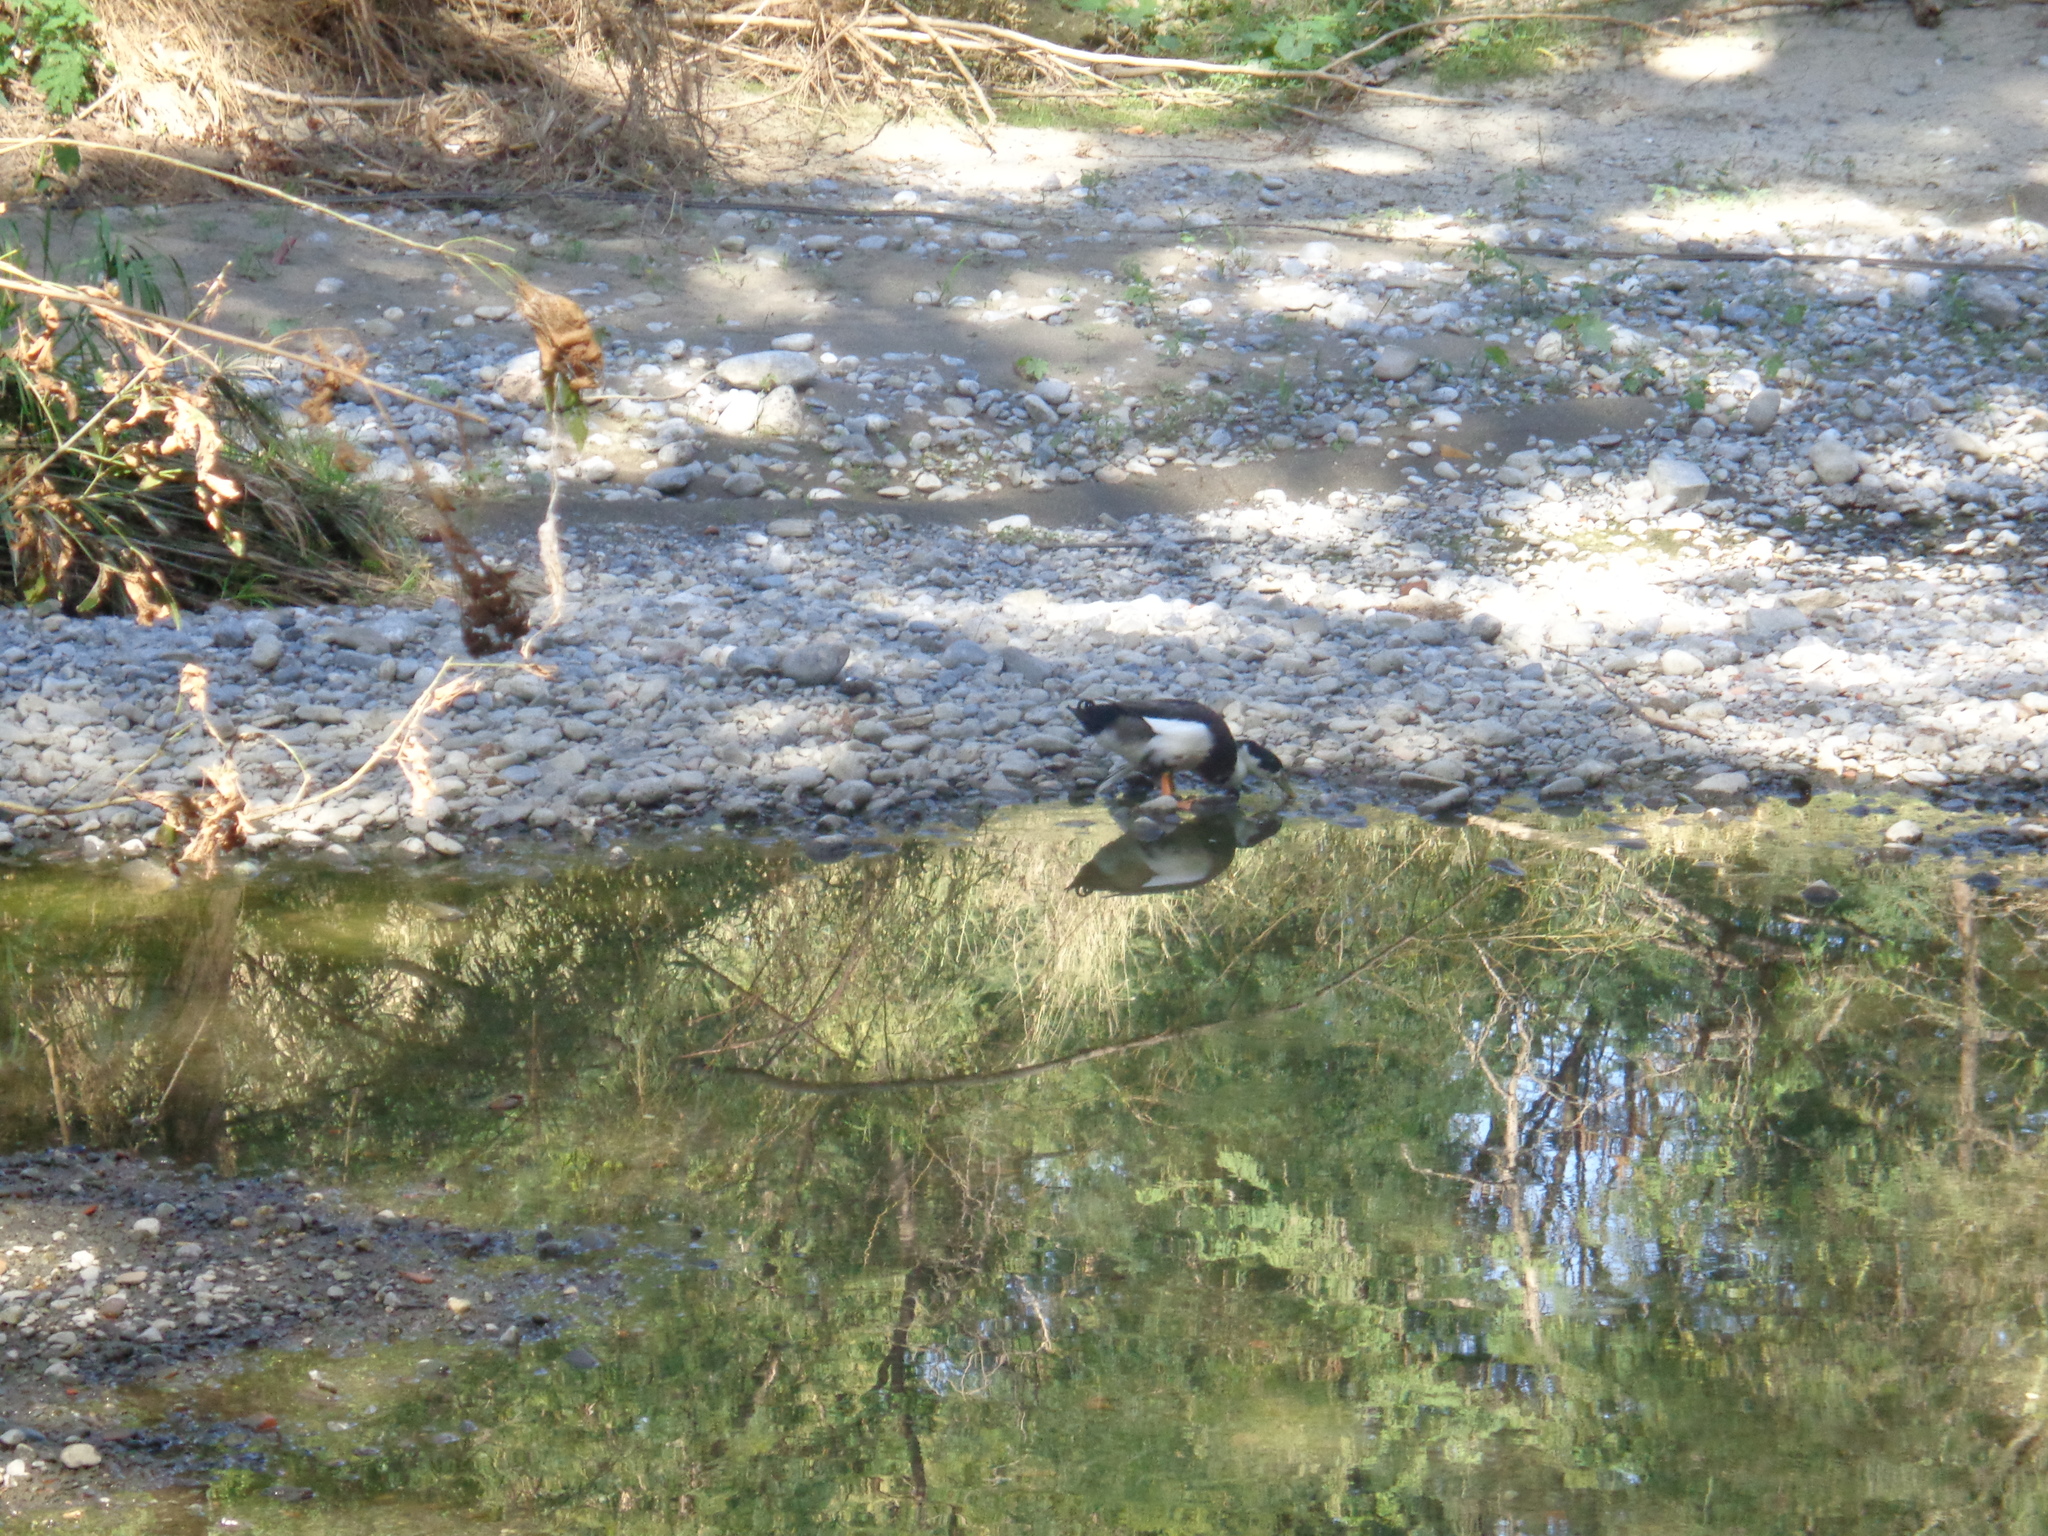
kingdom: Animalia
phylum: Chordata
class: Aves
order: Anseriformes
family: Anatidae
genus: Anas
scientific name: Anas platyrhynchos
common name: Mallard
